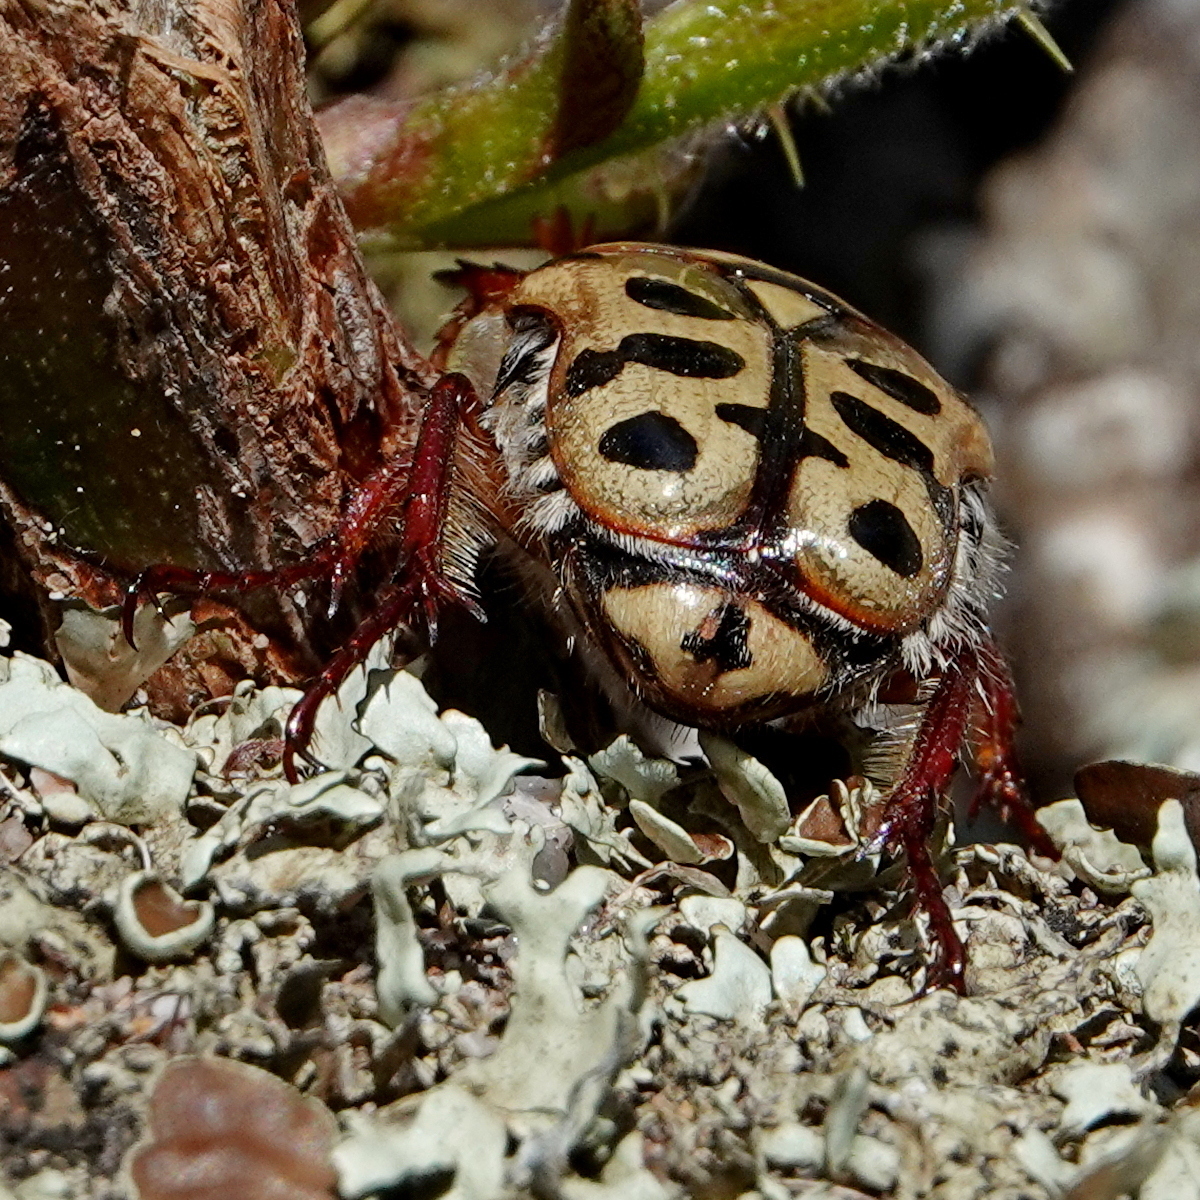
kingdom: Animalia
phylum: Arthropoda
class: Insecta
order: Coleoptera
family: Scarabaeidae
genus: Neorrhina
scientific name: Neorrhina punctatum
